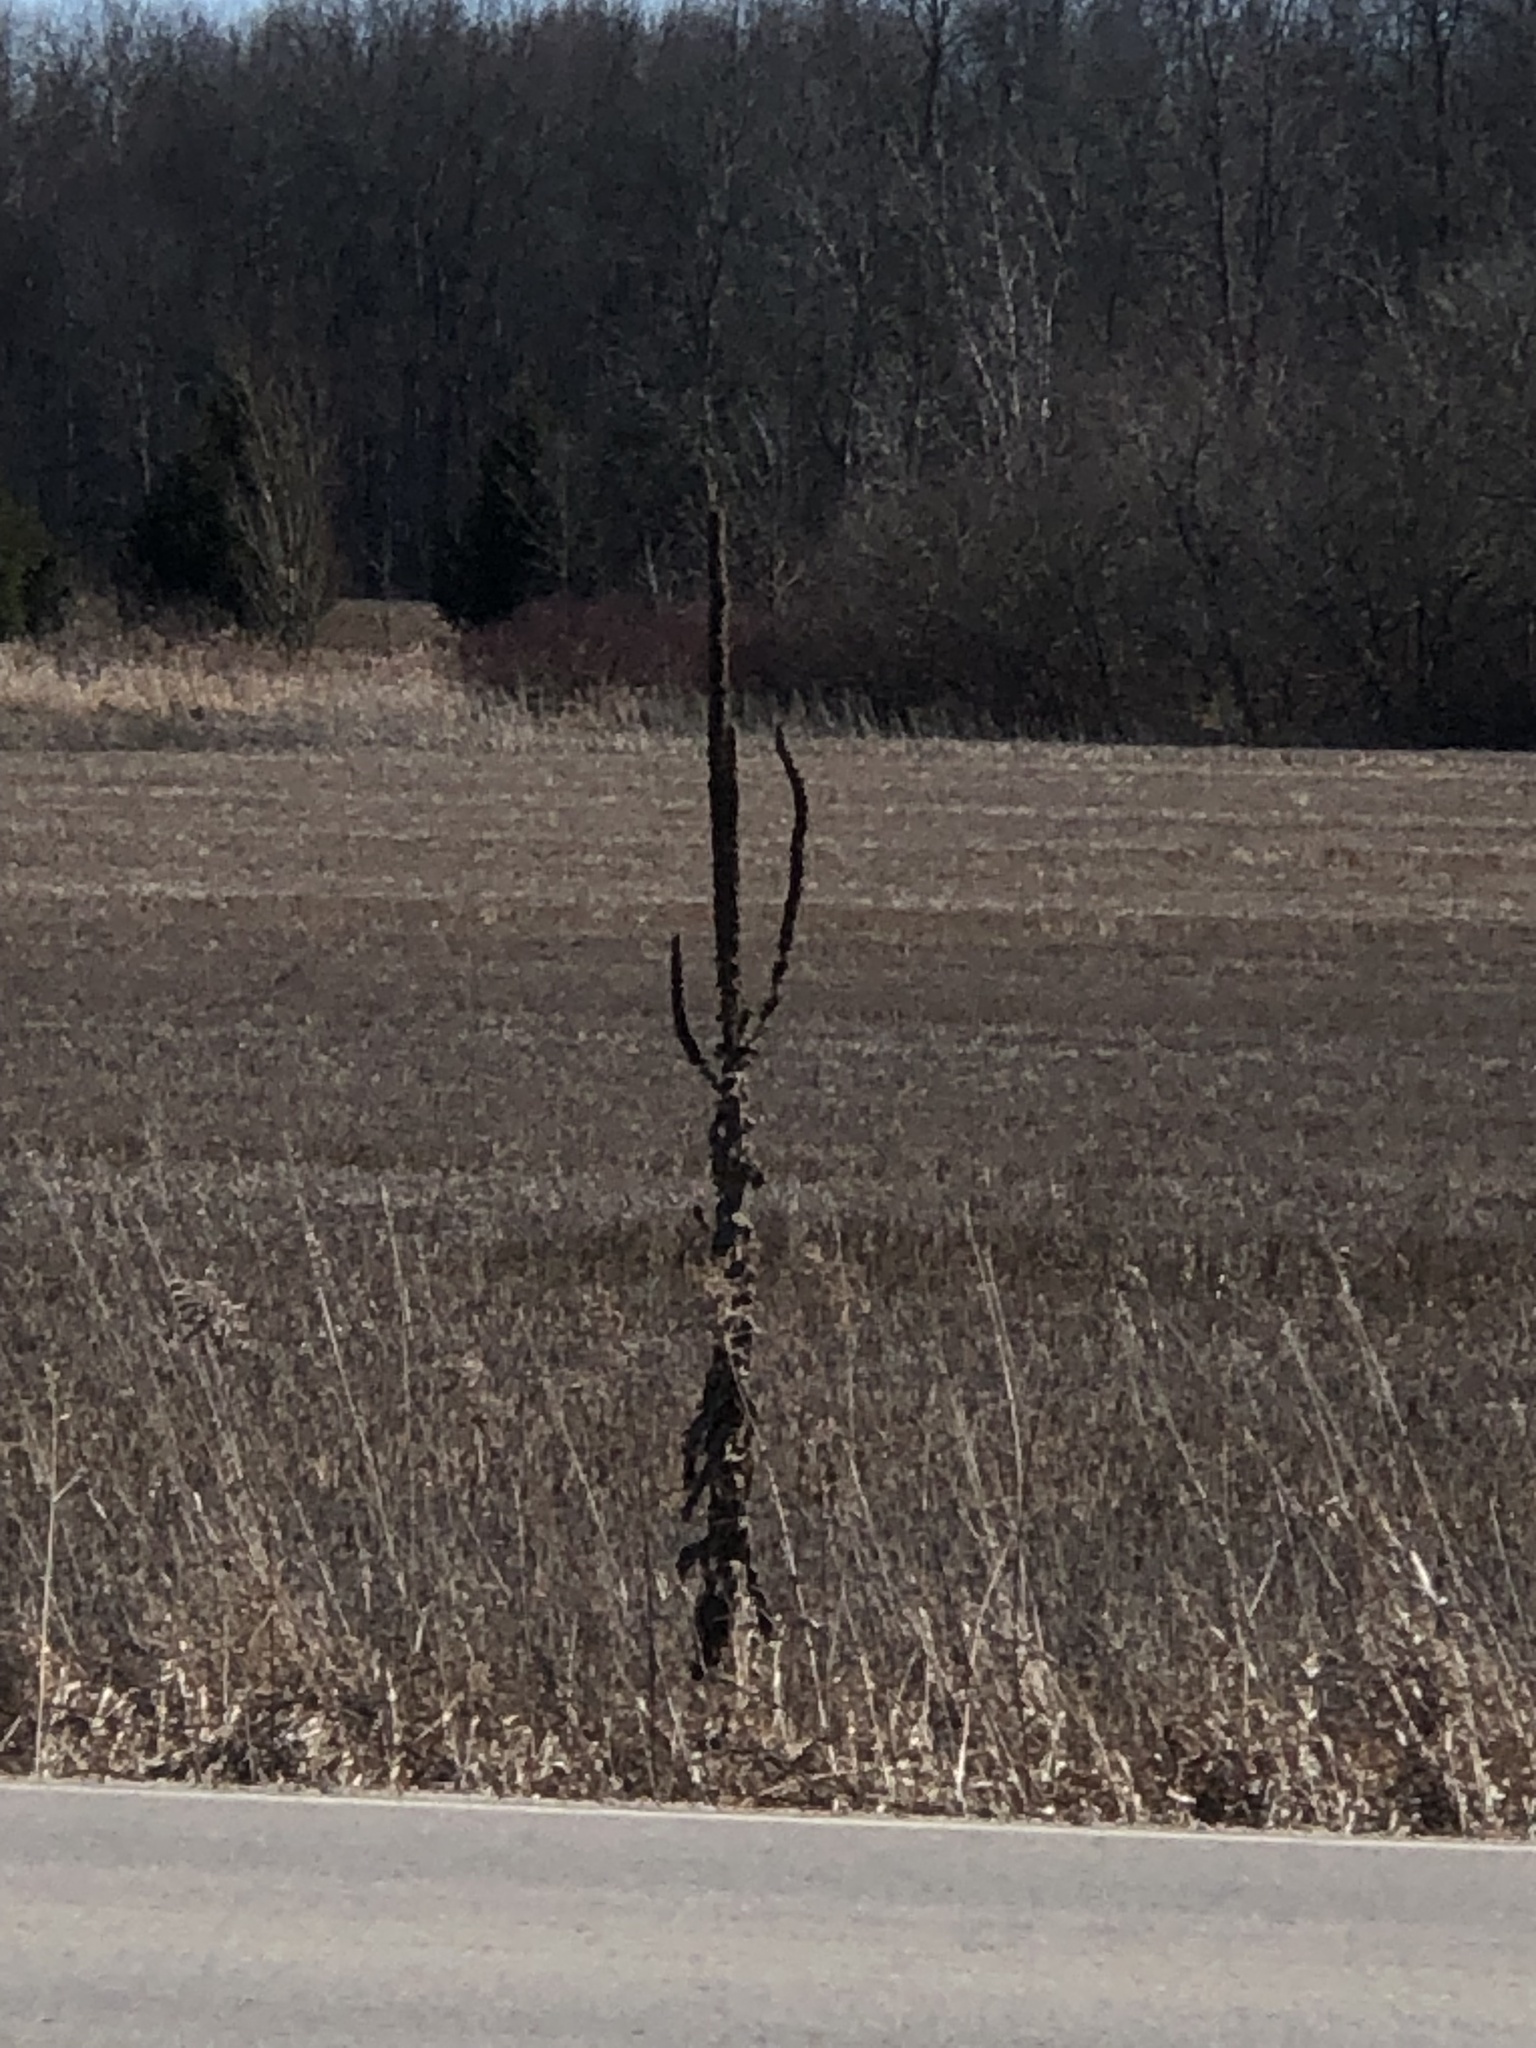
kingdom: Plantae
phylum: Tracheophyta
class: Magnoliopsida
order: Lamiales
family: Scrophulariaceae
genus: Verbascum
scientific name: Verbascum thapsus
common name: Common mullein
